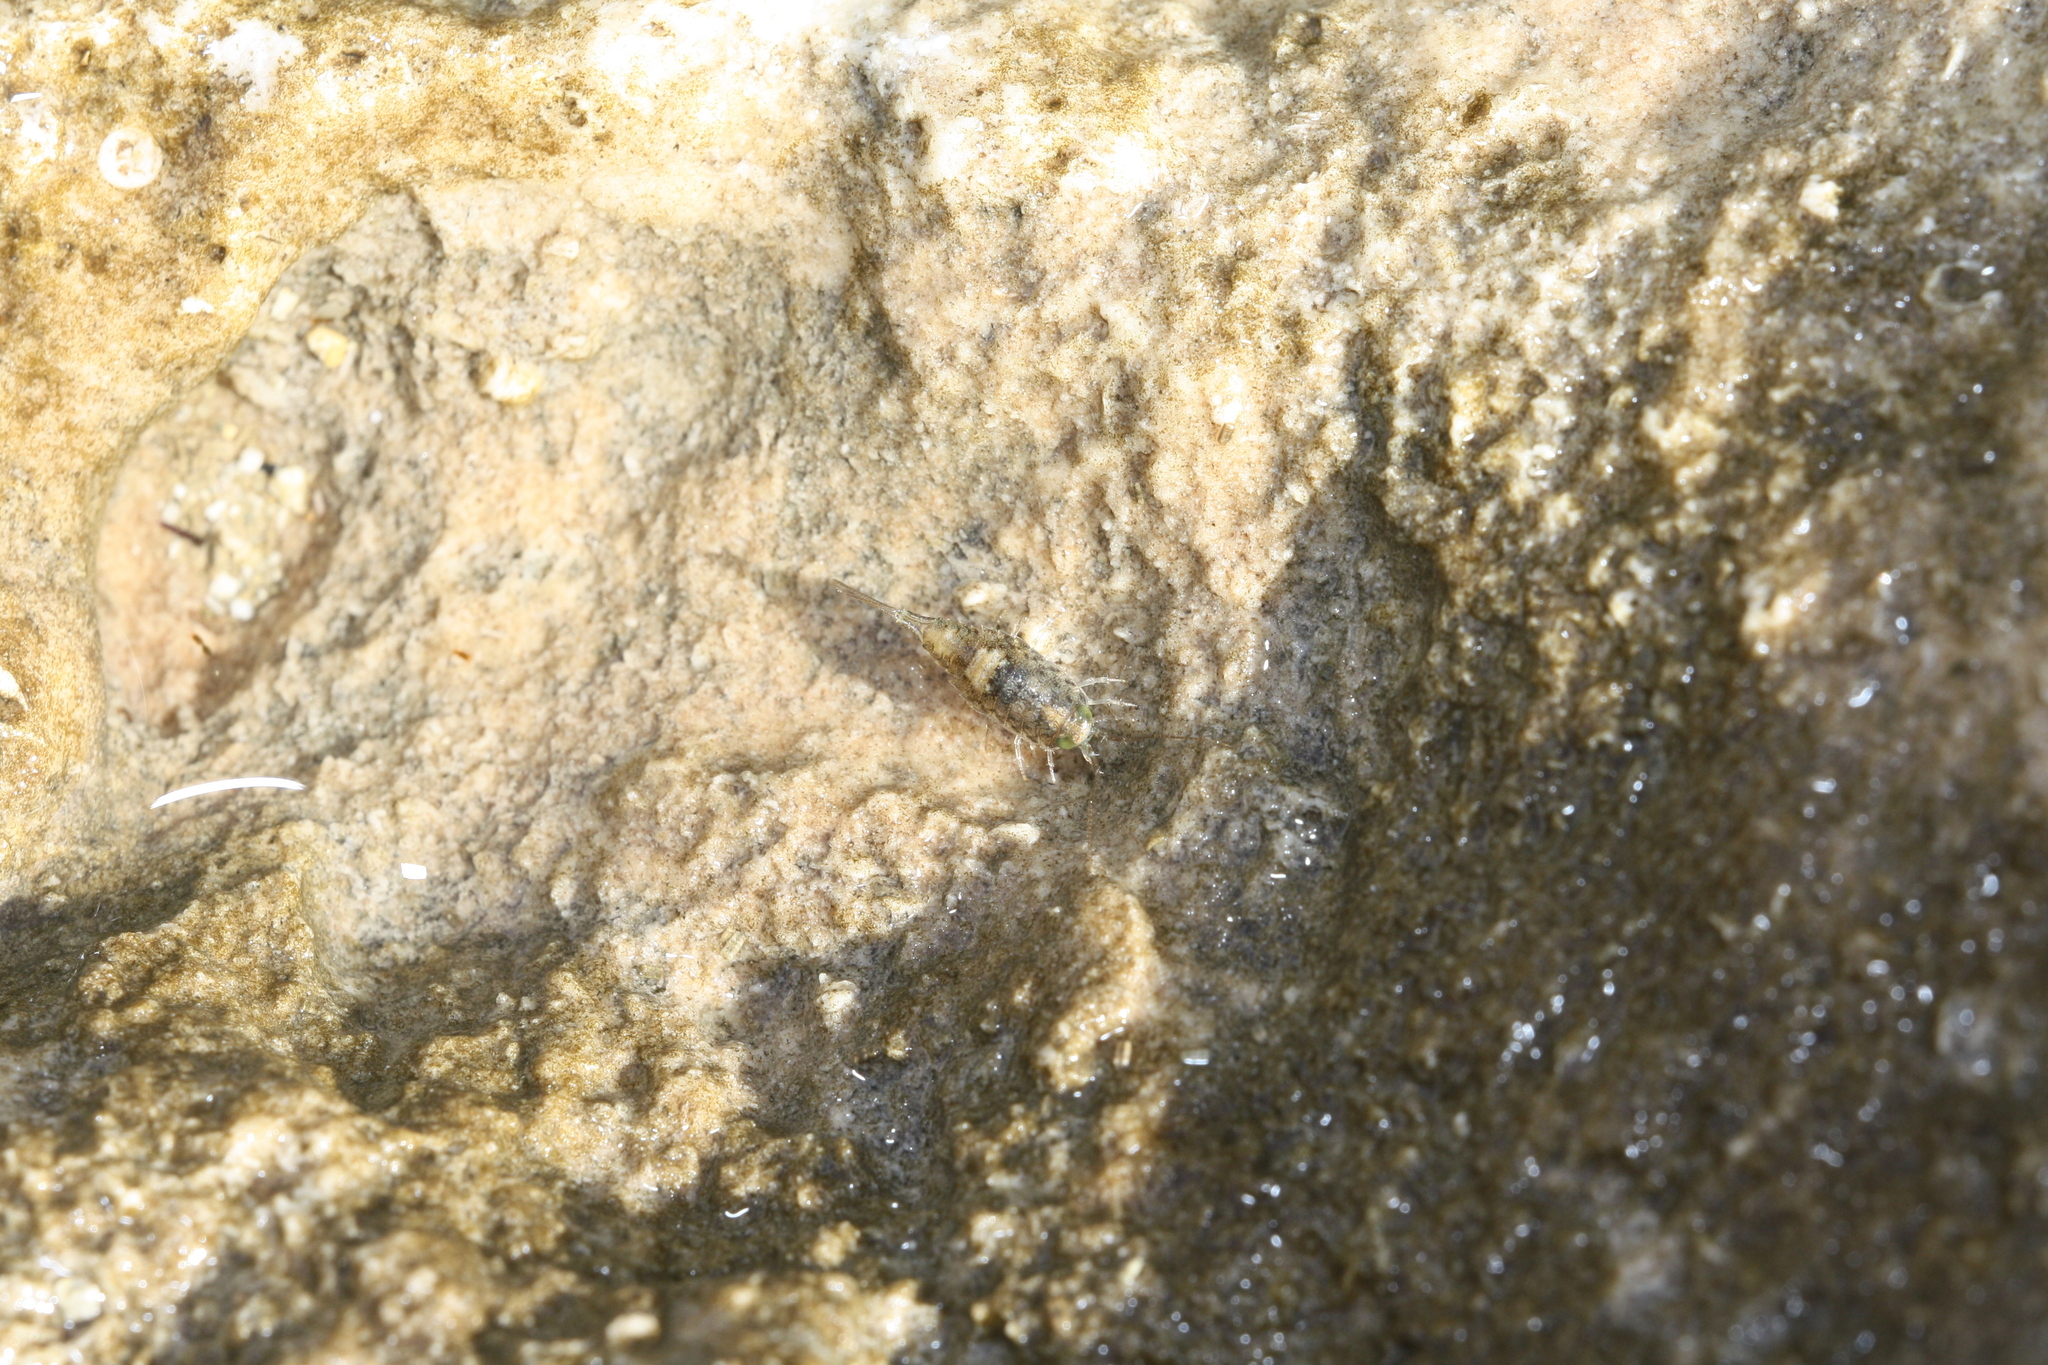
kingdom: Animalia
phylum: Arthropoda
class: Malacostraca
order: Isopoda
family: Ligiidae
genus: Ligia
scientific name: Ligia italica
